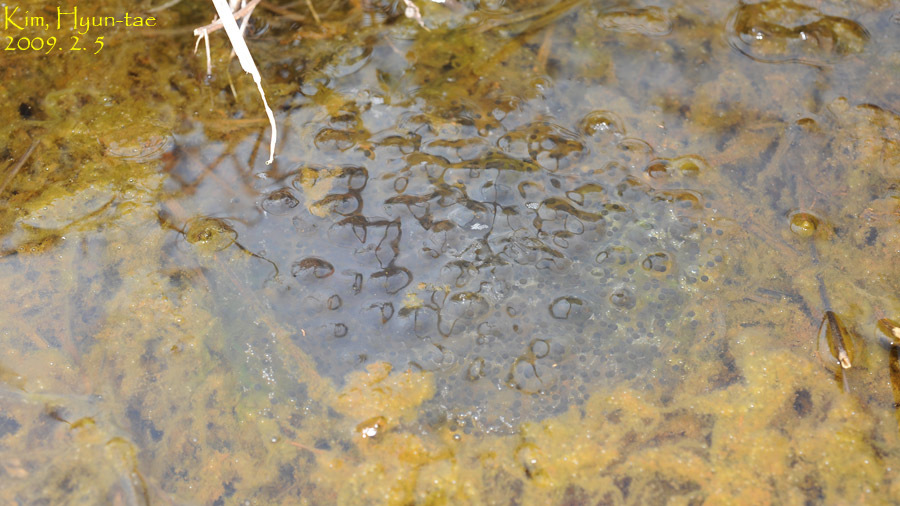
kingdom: Animalia
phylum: Chordata
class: Amphibia
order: Anura
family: Ranidae
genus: Rana
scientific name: Rana uenoi
